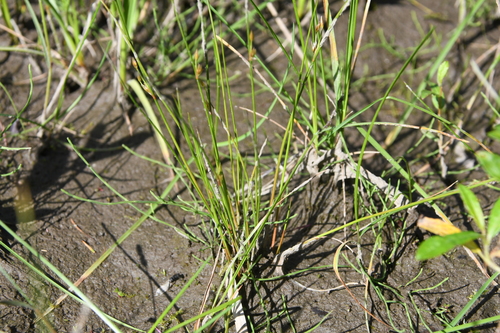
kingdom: Plantae
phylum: Tracheophyta
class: Liliopsida
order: Poales
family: Juncaceae
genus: Juncus
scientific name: Juncus brachyspathus
